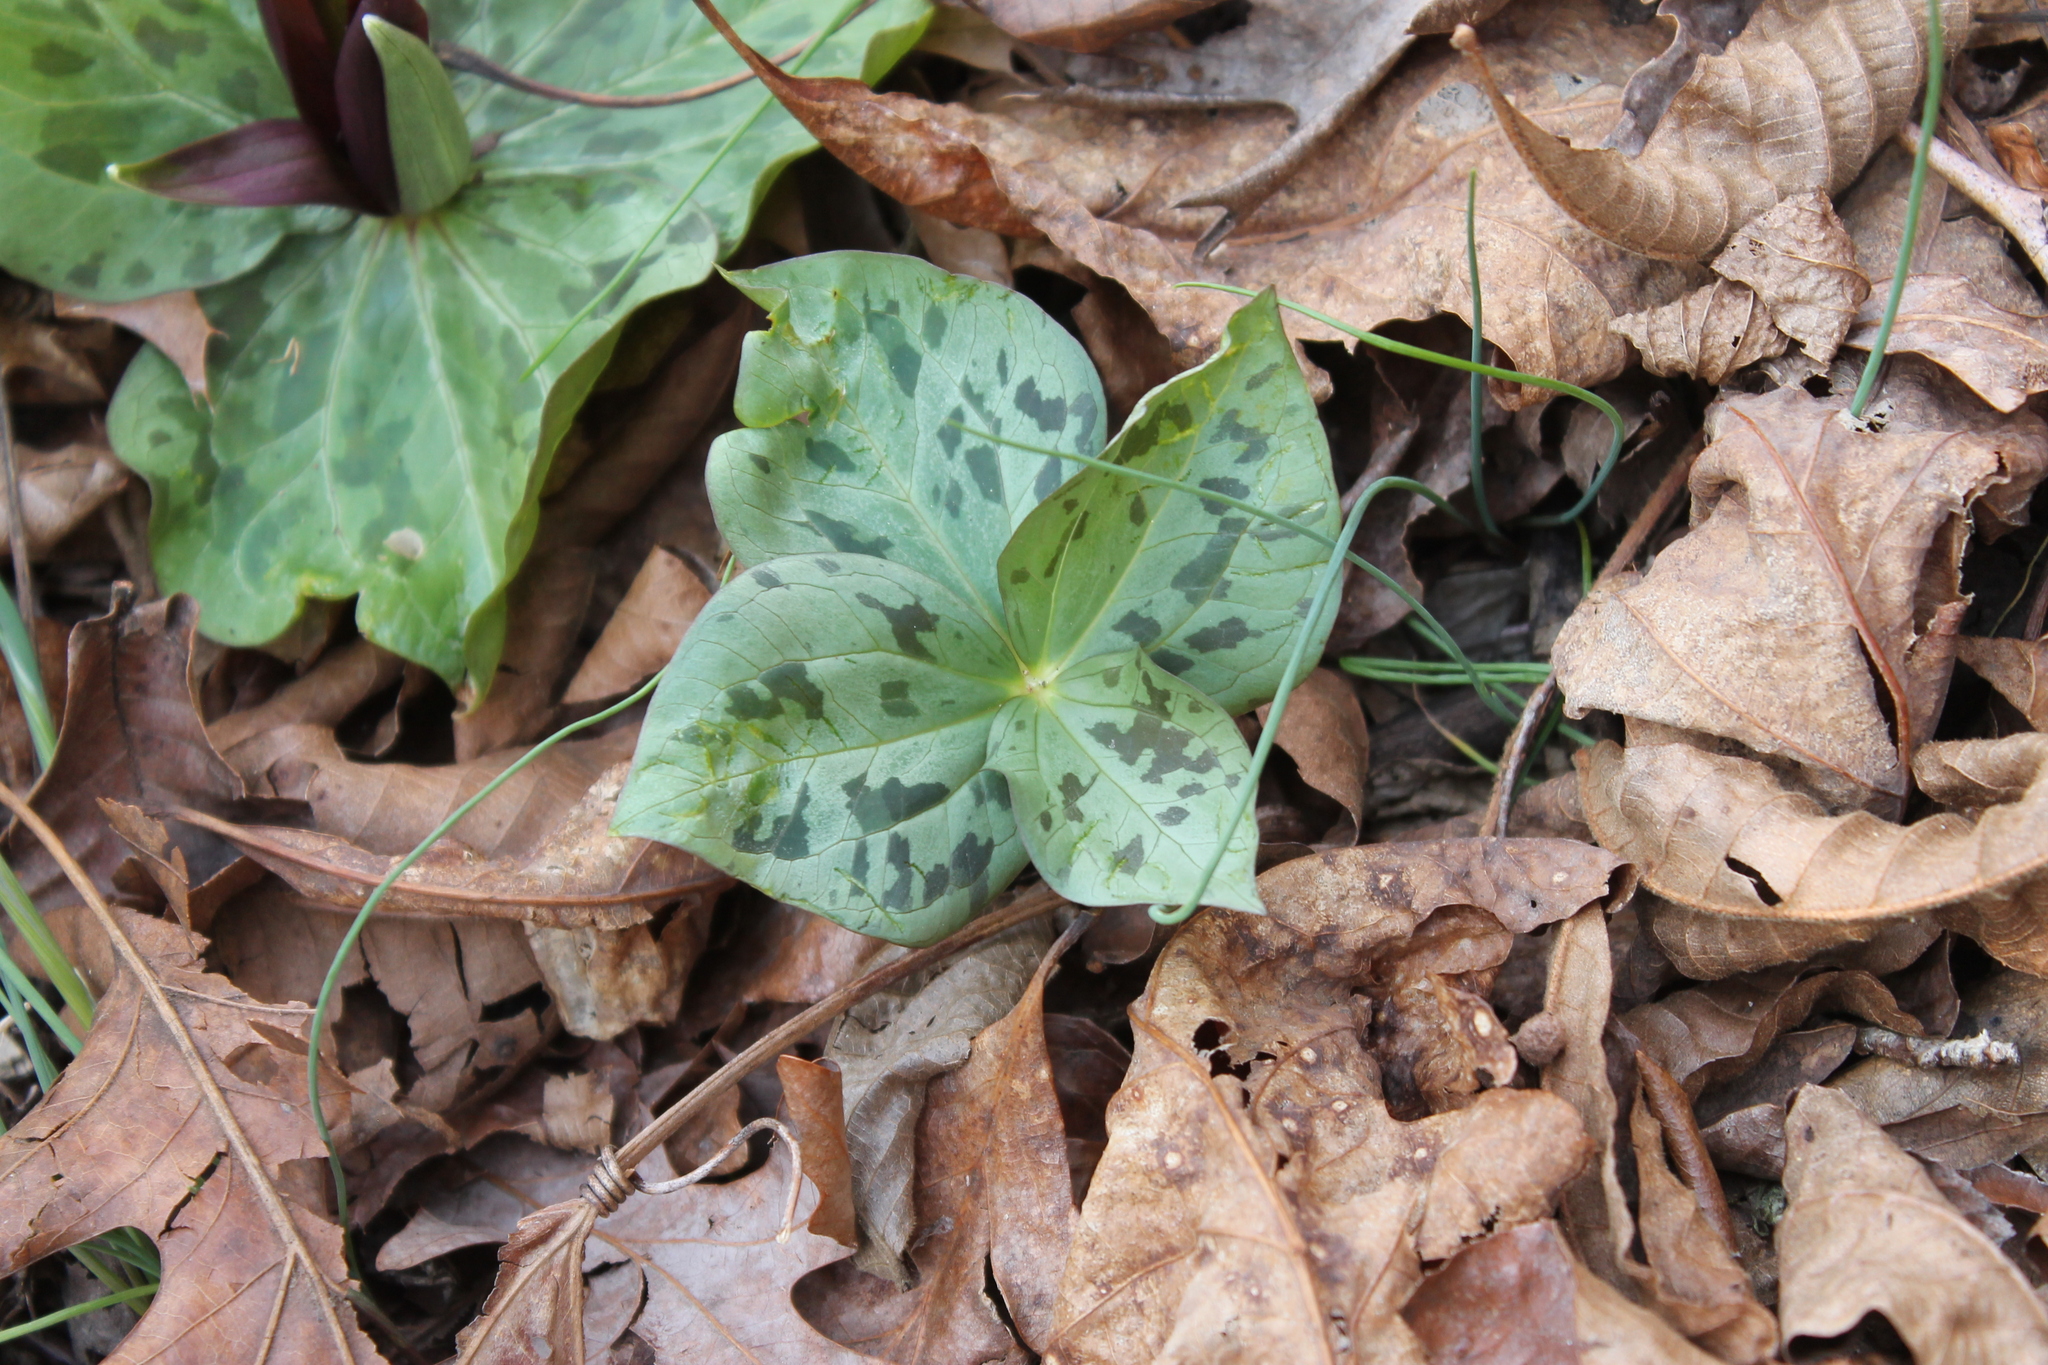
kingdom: Plantae
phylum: Tracheophyta
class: Liliopsida
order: Liliales
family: Melanthiaceae
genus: Trillium
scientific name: Trillium cuneatum
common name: Cuneate trillium
